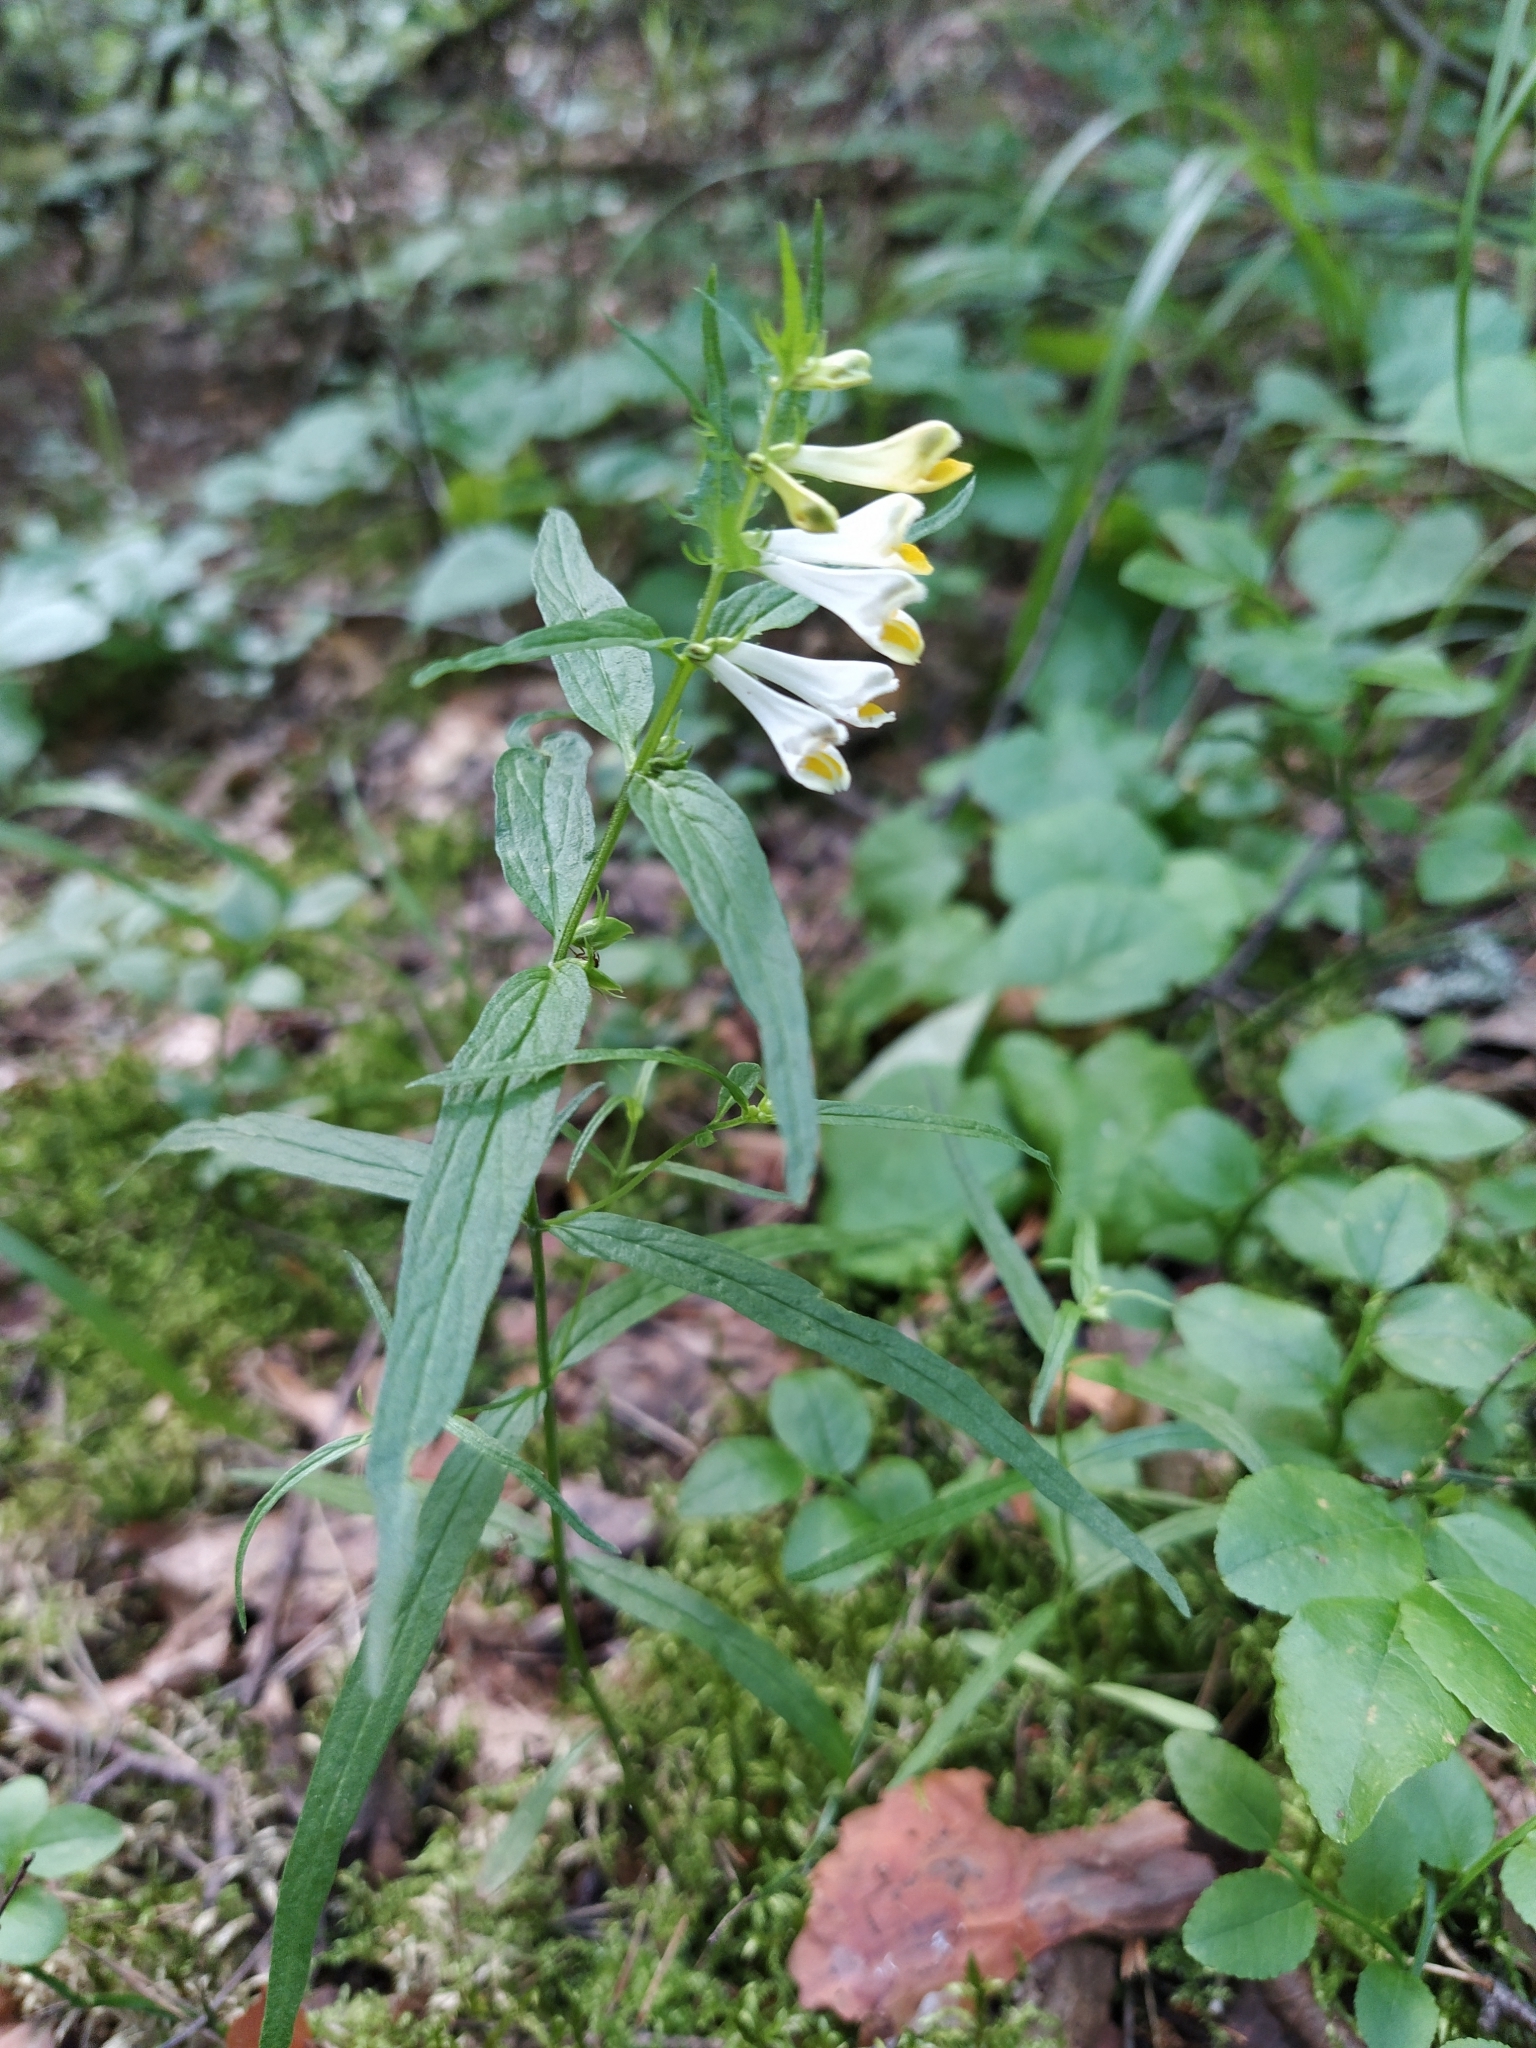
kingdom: Plantae
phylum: Tracheophyta
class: Magnoliopsida
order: Lamiales
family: Orobanchaceae
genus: Melampyrum
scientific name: Melampyrum pratense
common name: Common cow-wheat
